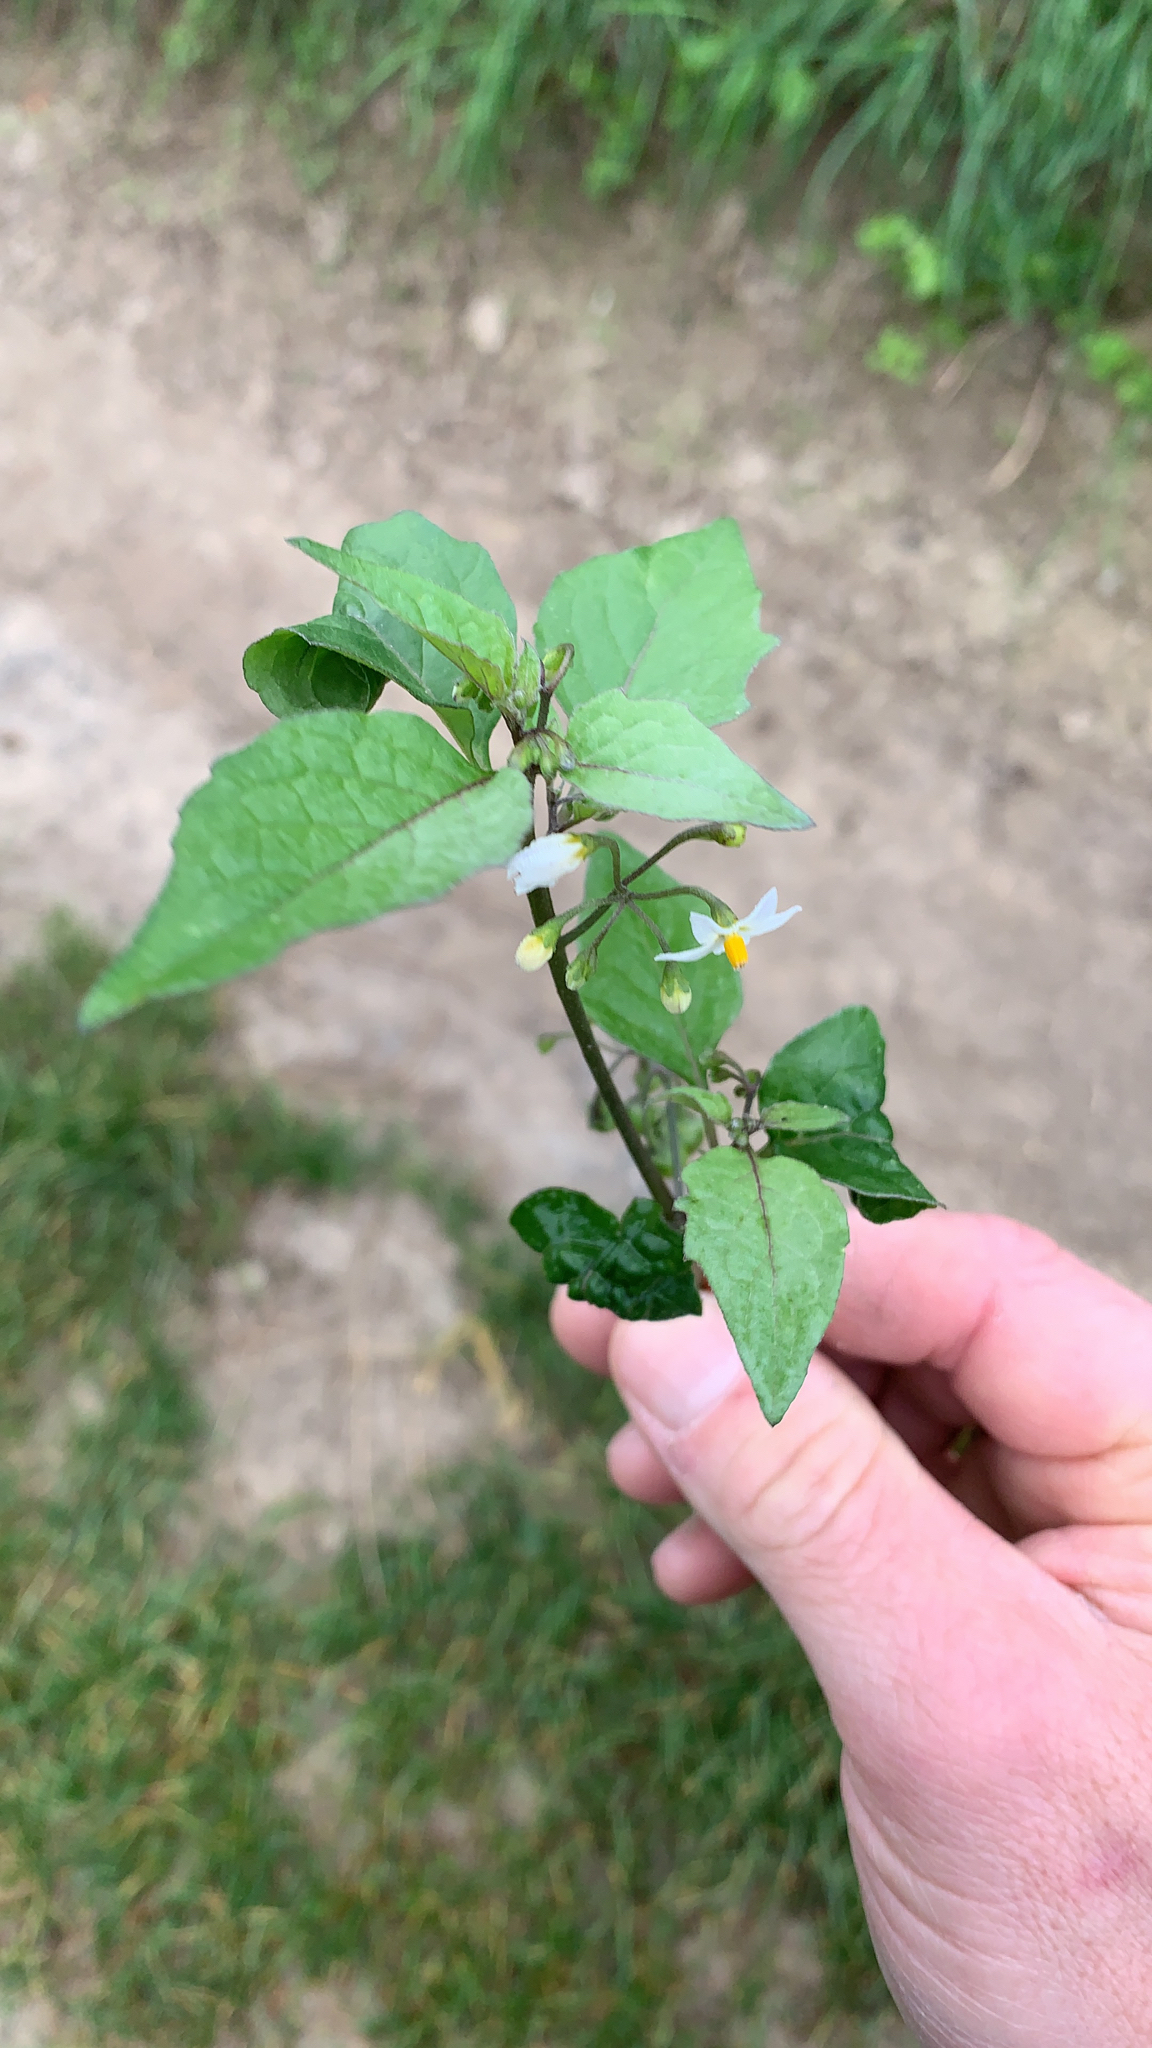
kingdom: Plantae
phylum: Tracheophyta
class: Magnoliopsida
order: Solanales
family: Solanaceae
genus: Solanum
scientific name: Solanum nigrum
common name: Black nightshade
